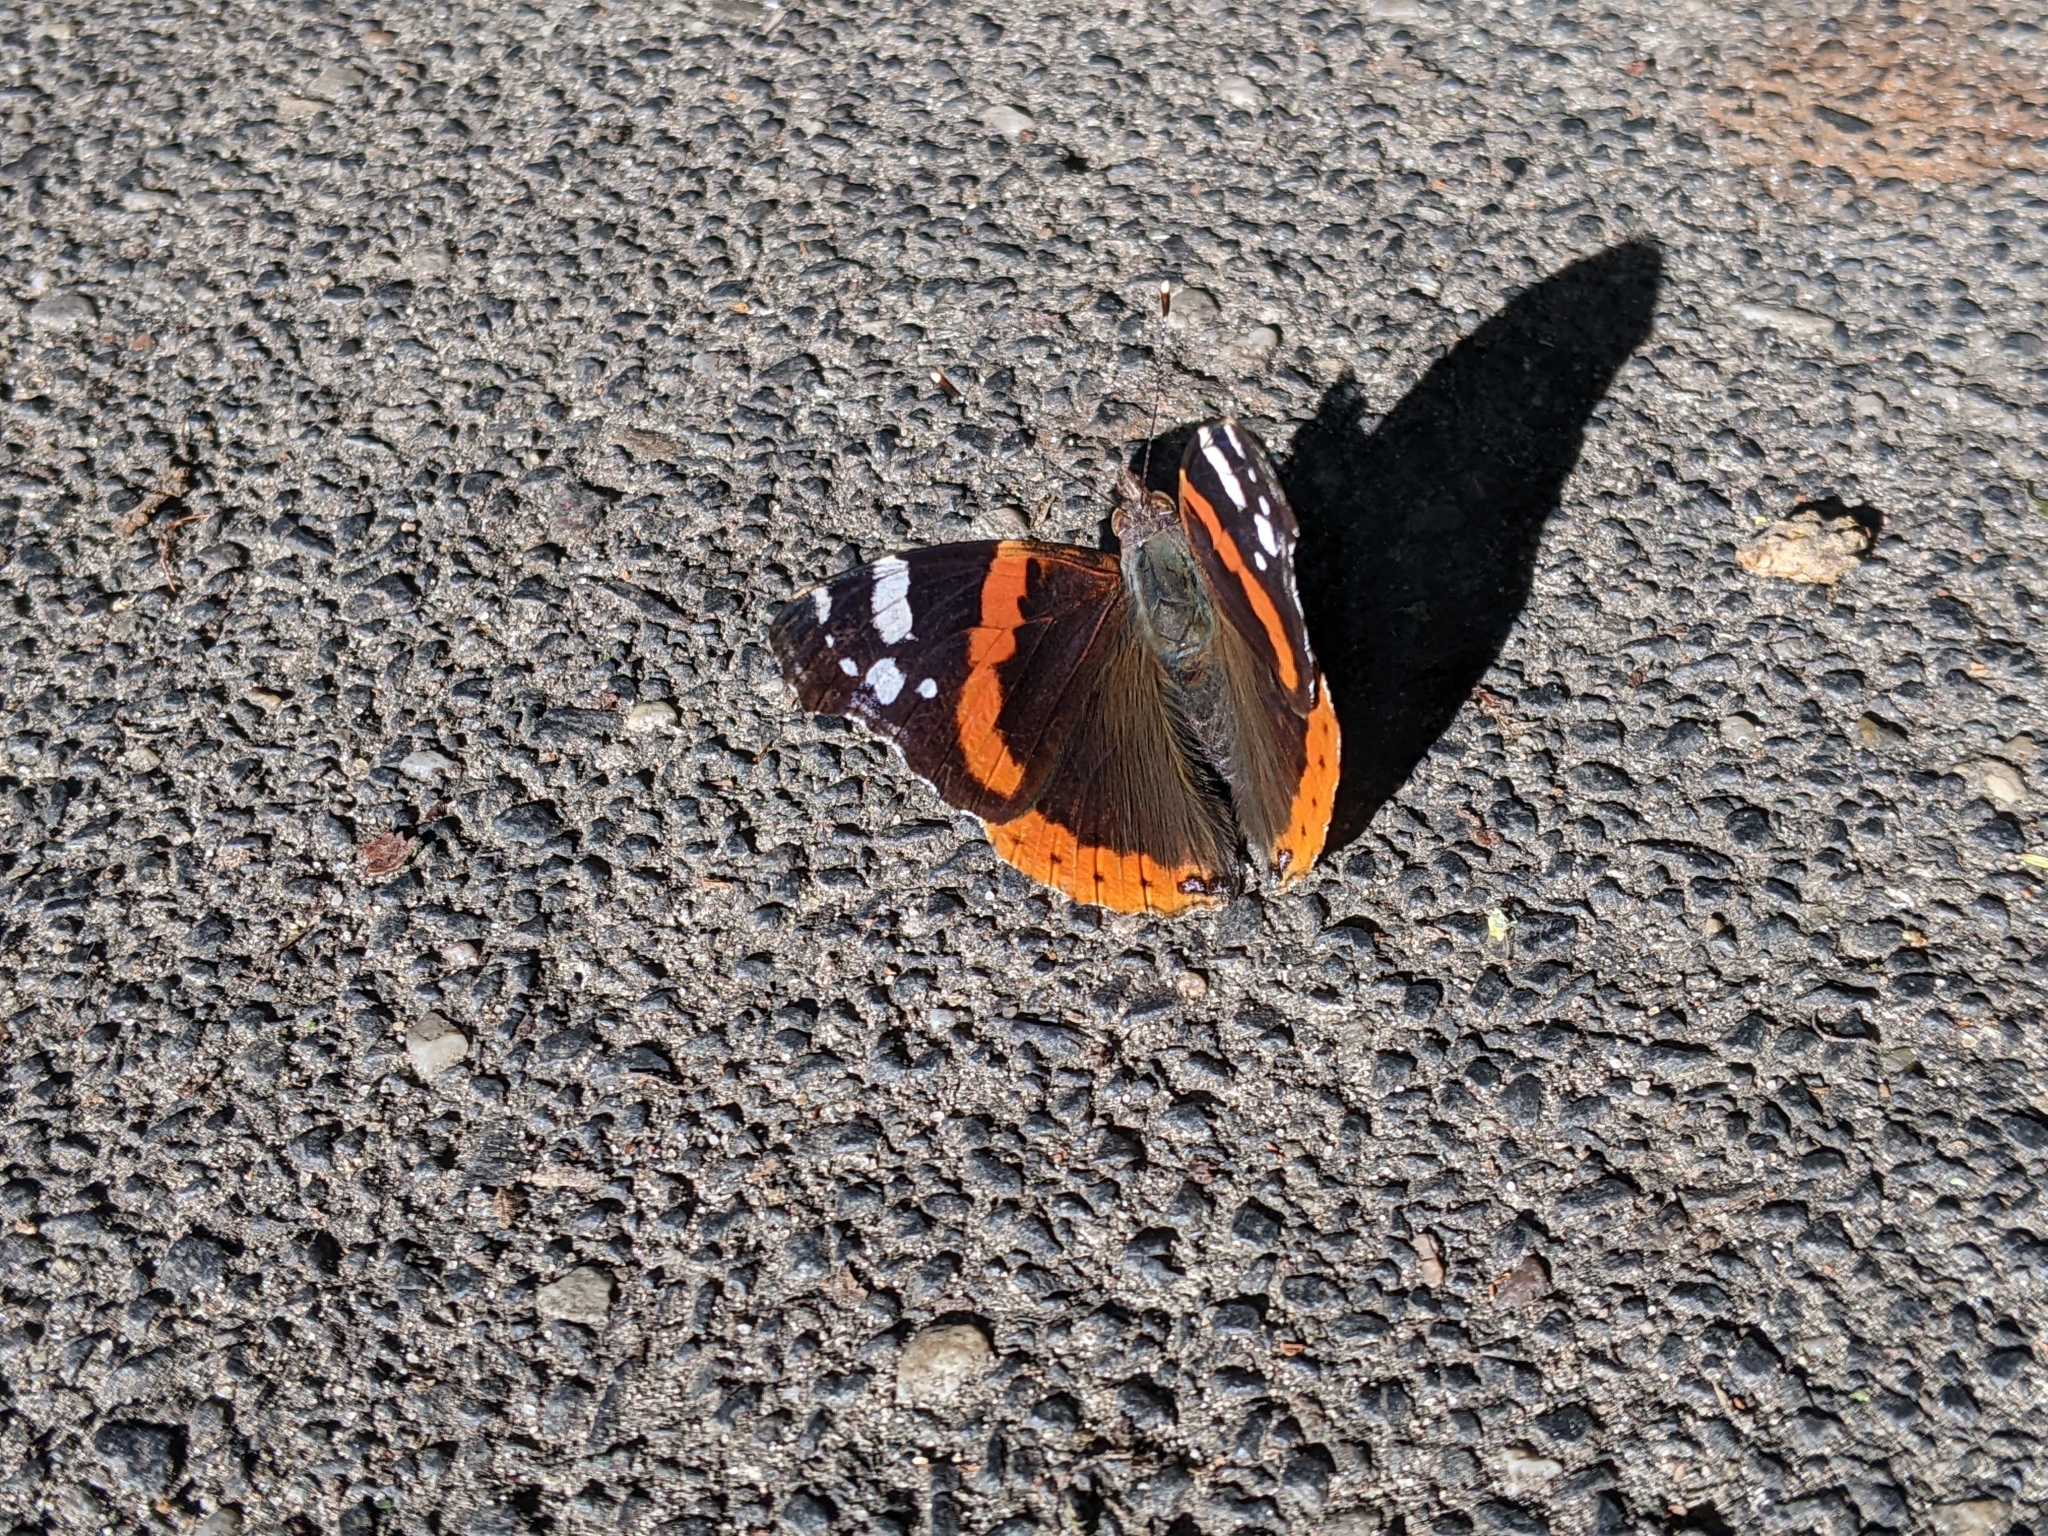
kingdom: Animalia
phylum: Arthropoda
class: Insecta
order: Lepidoptera
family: Nymphalidae
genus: Vanessa
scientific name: Vanessa atalanta
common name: Red admiral
